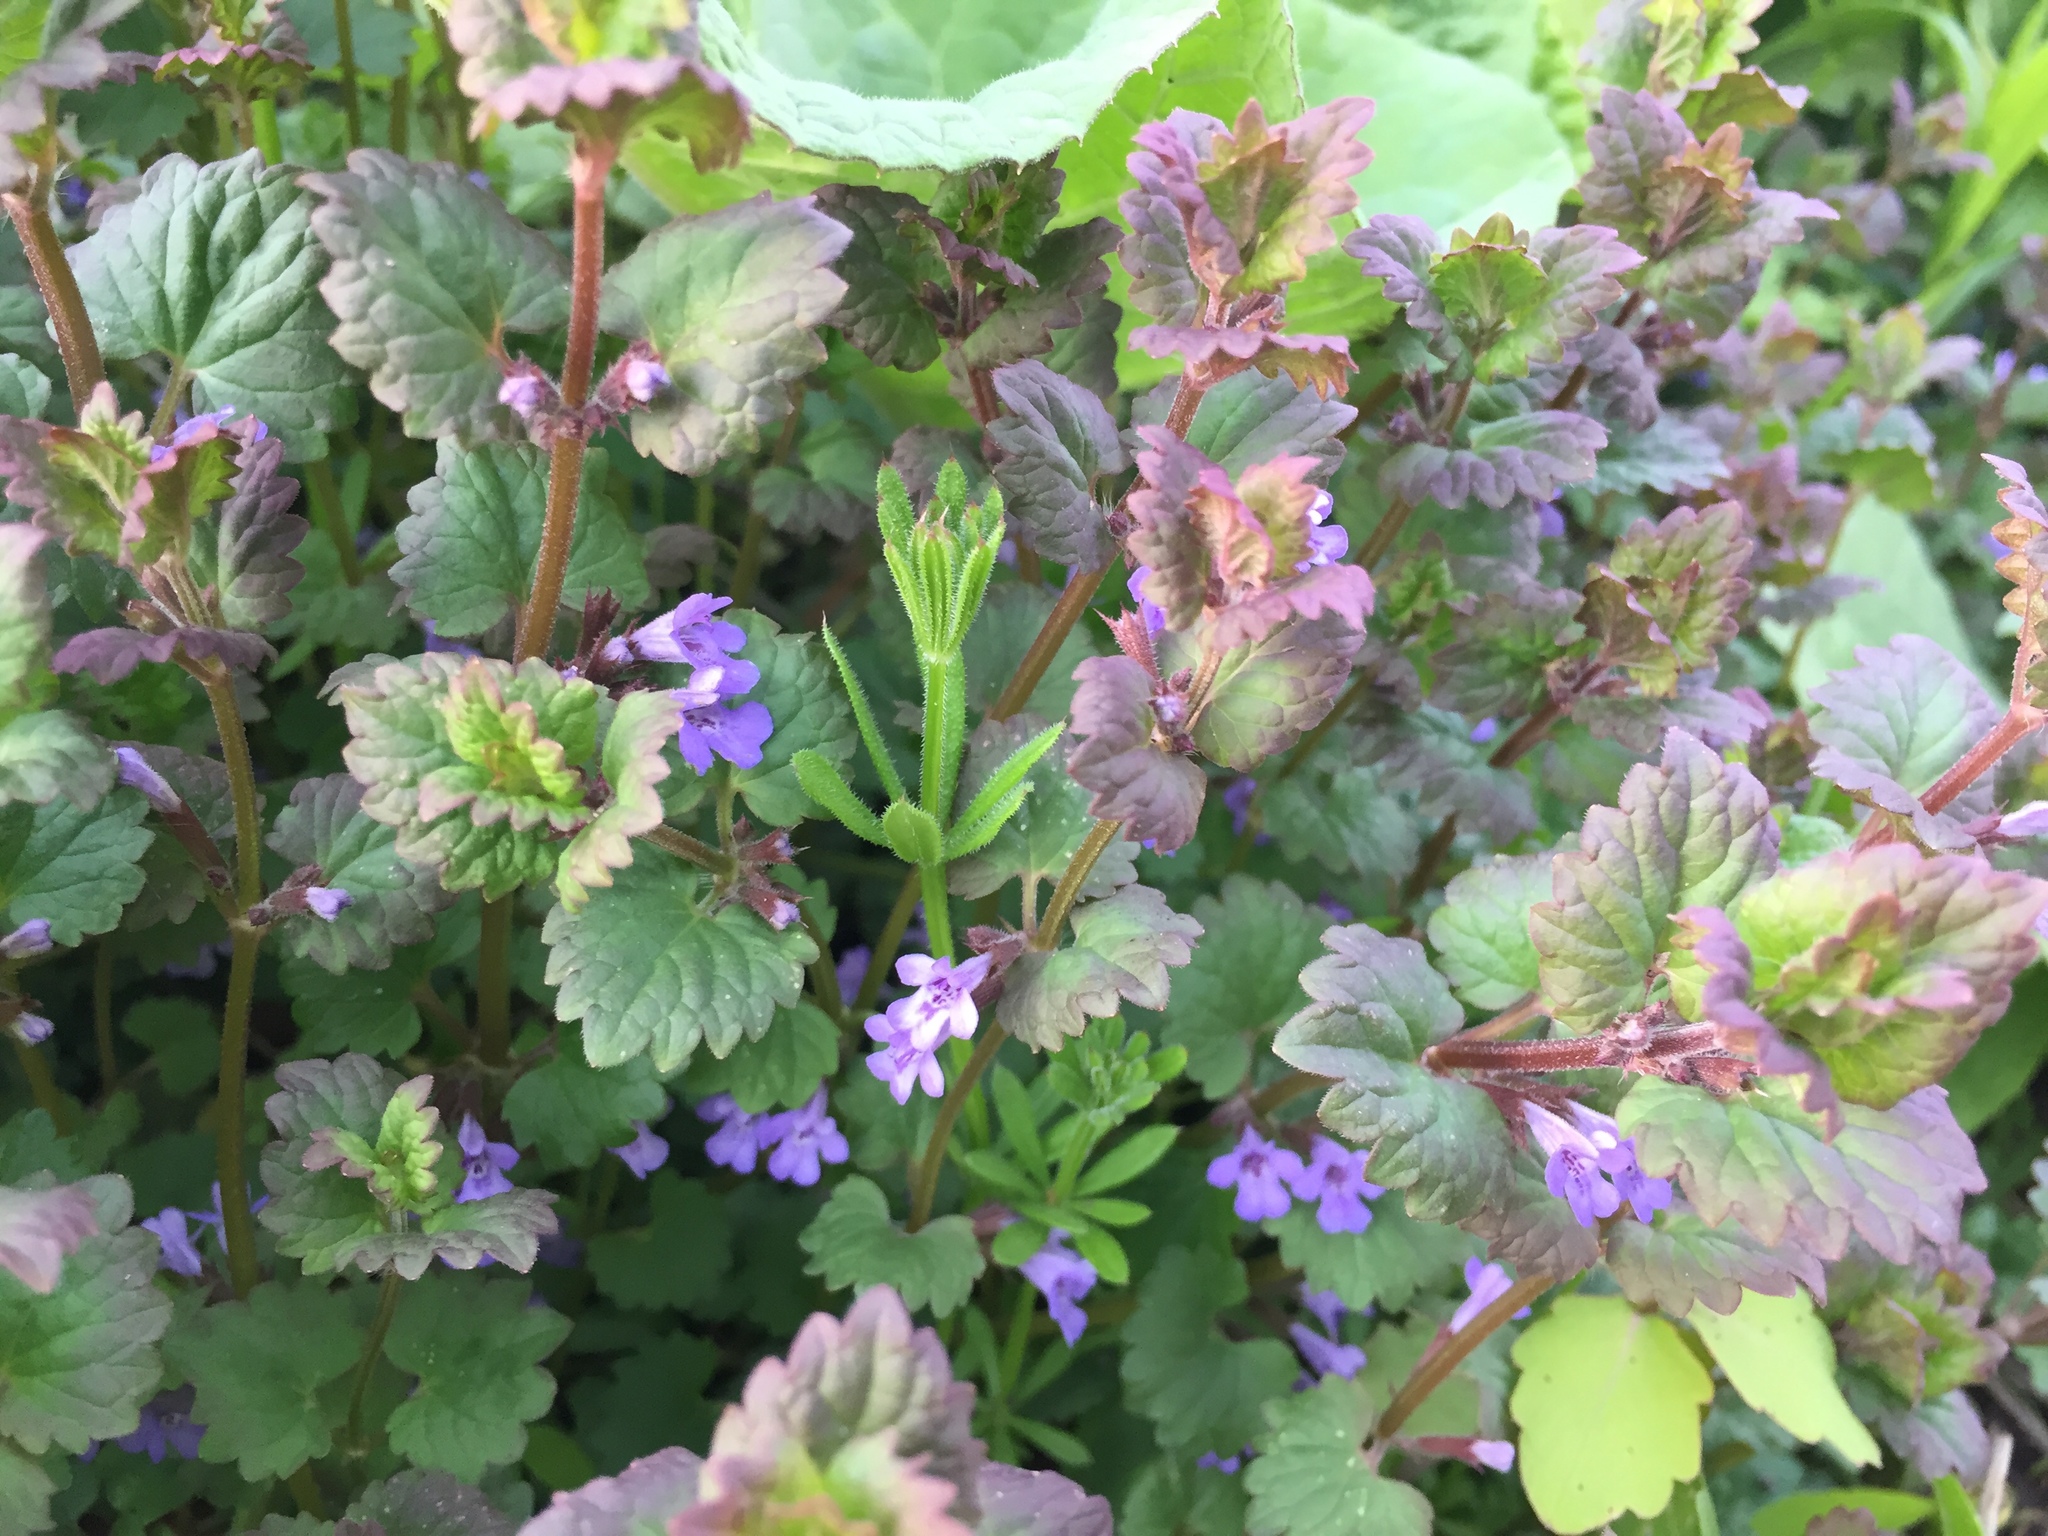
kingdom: Plantae
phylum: Tracheophyta
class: Magnoliopsida
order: Lamiales
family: Lamiaceae
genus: Glechoma
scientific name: Glechoma hederacea
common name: Ground ivy
